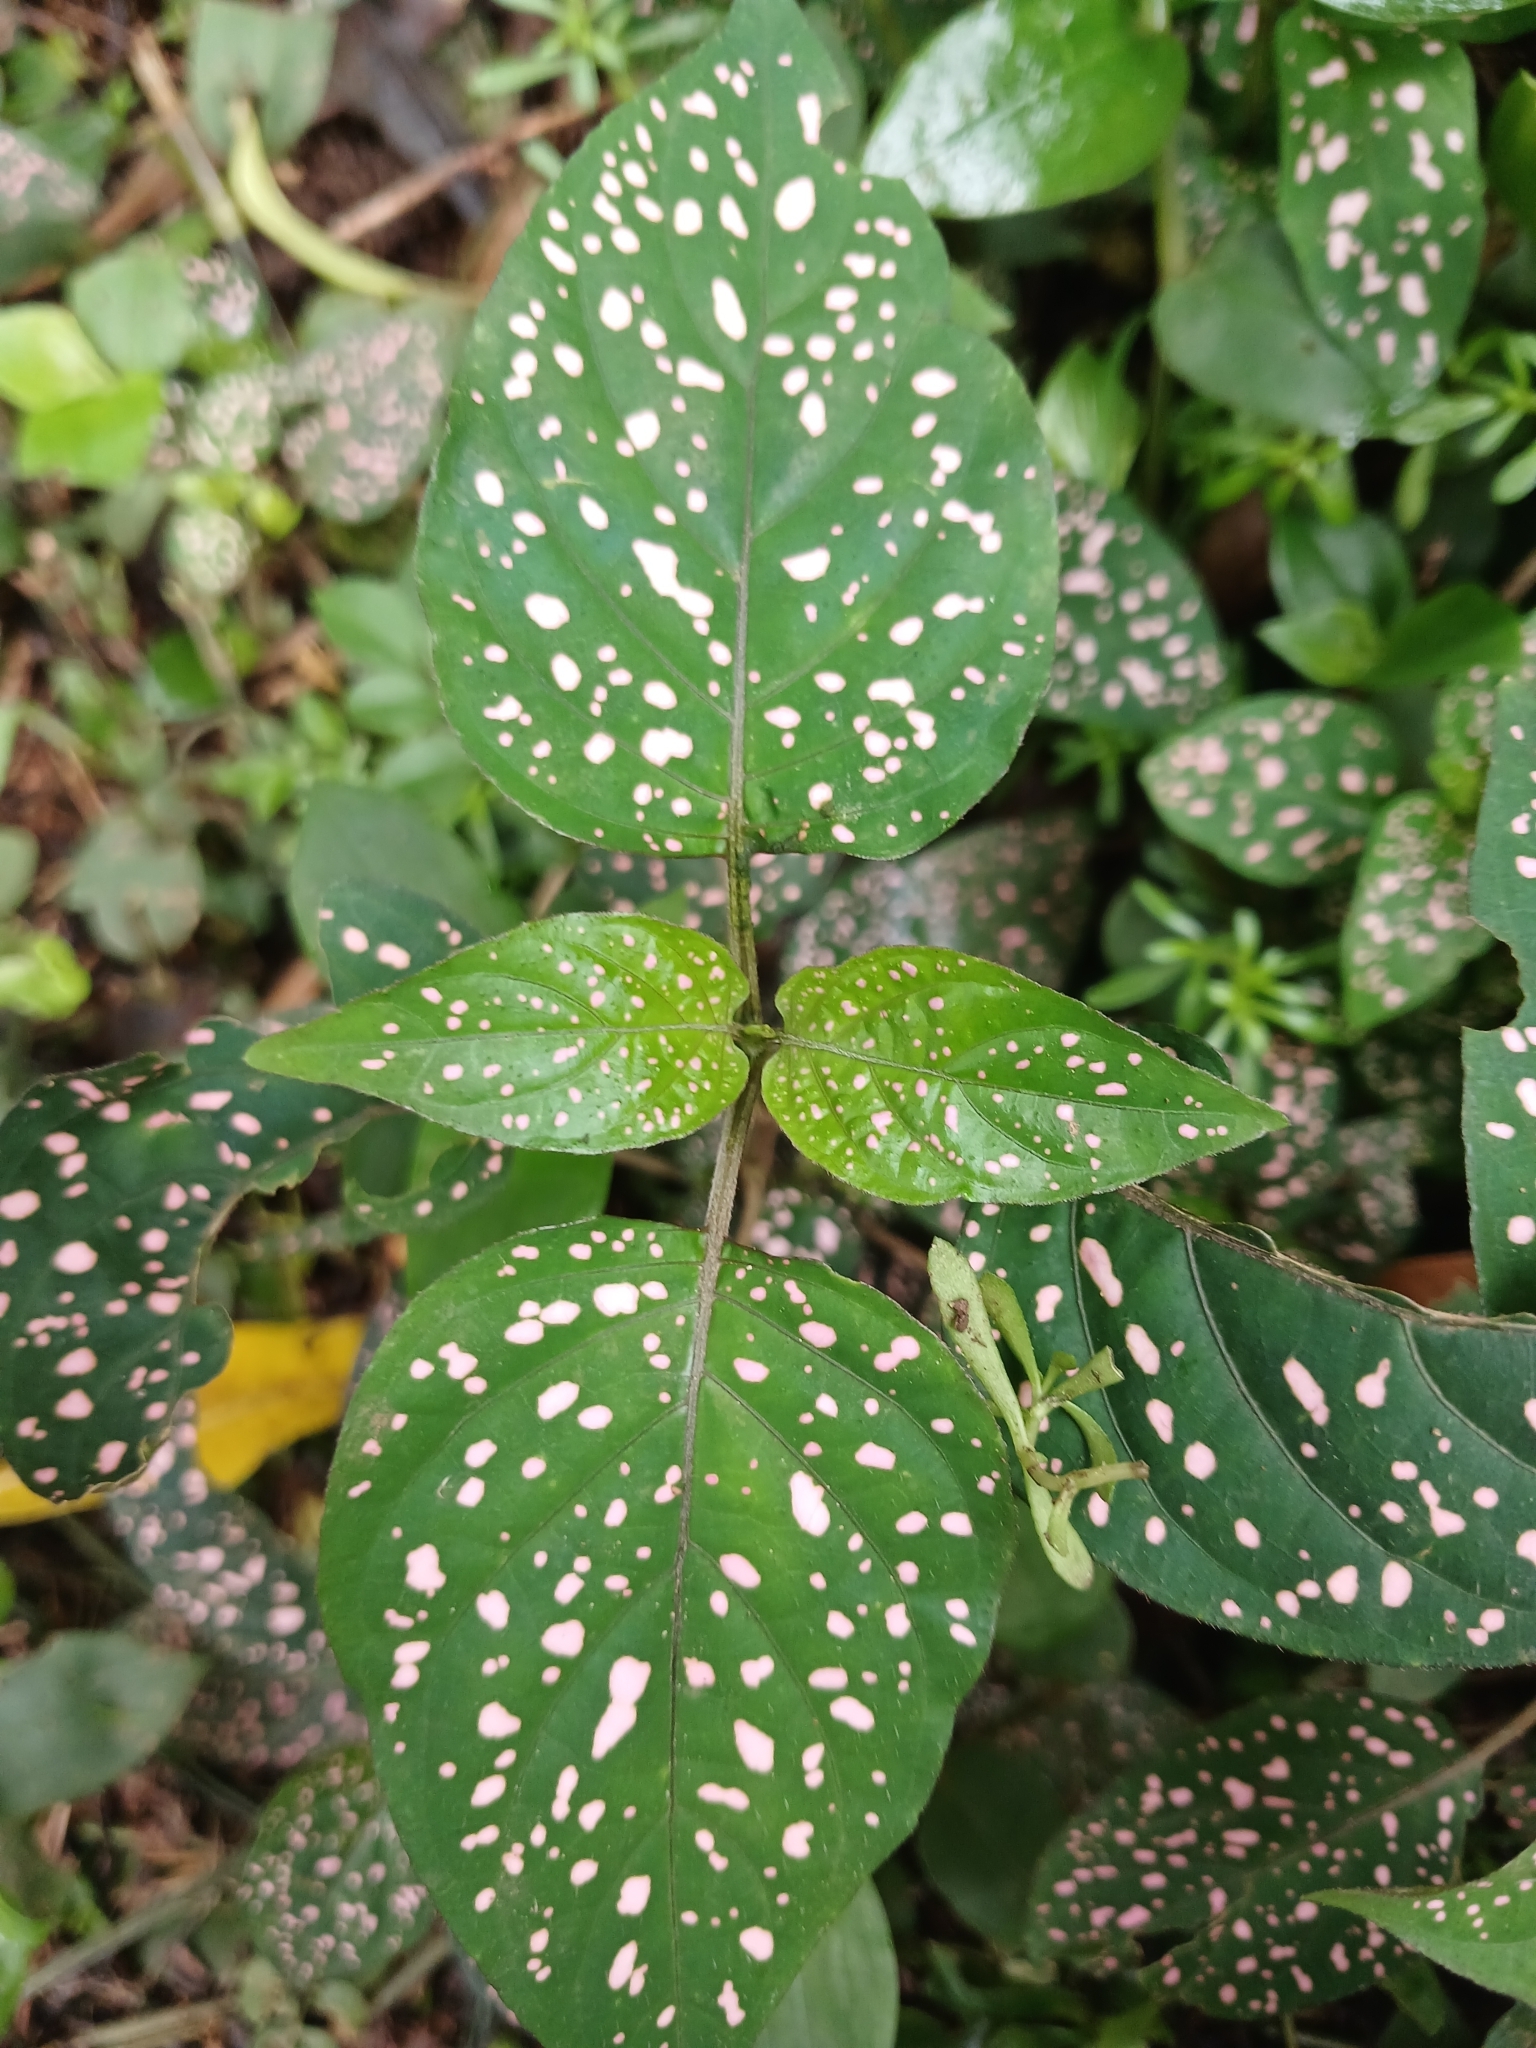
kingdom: Plantae
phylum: Tracheophyta
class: Magnoliopsida
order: Lamiales
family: Acanthaceae
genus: Hypoestes
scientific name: Hypoestes phyllostachya
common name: Polkadot-plant
